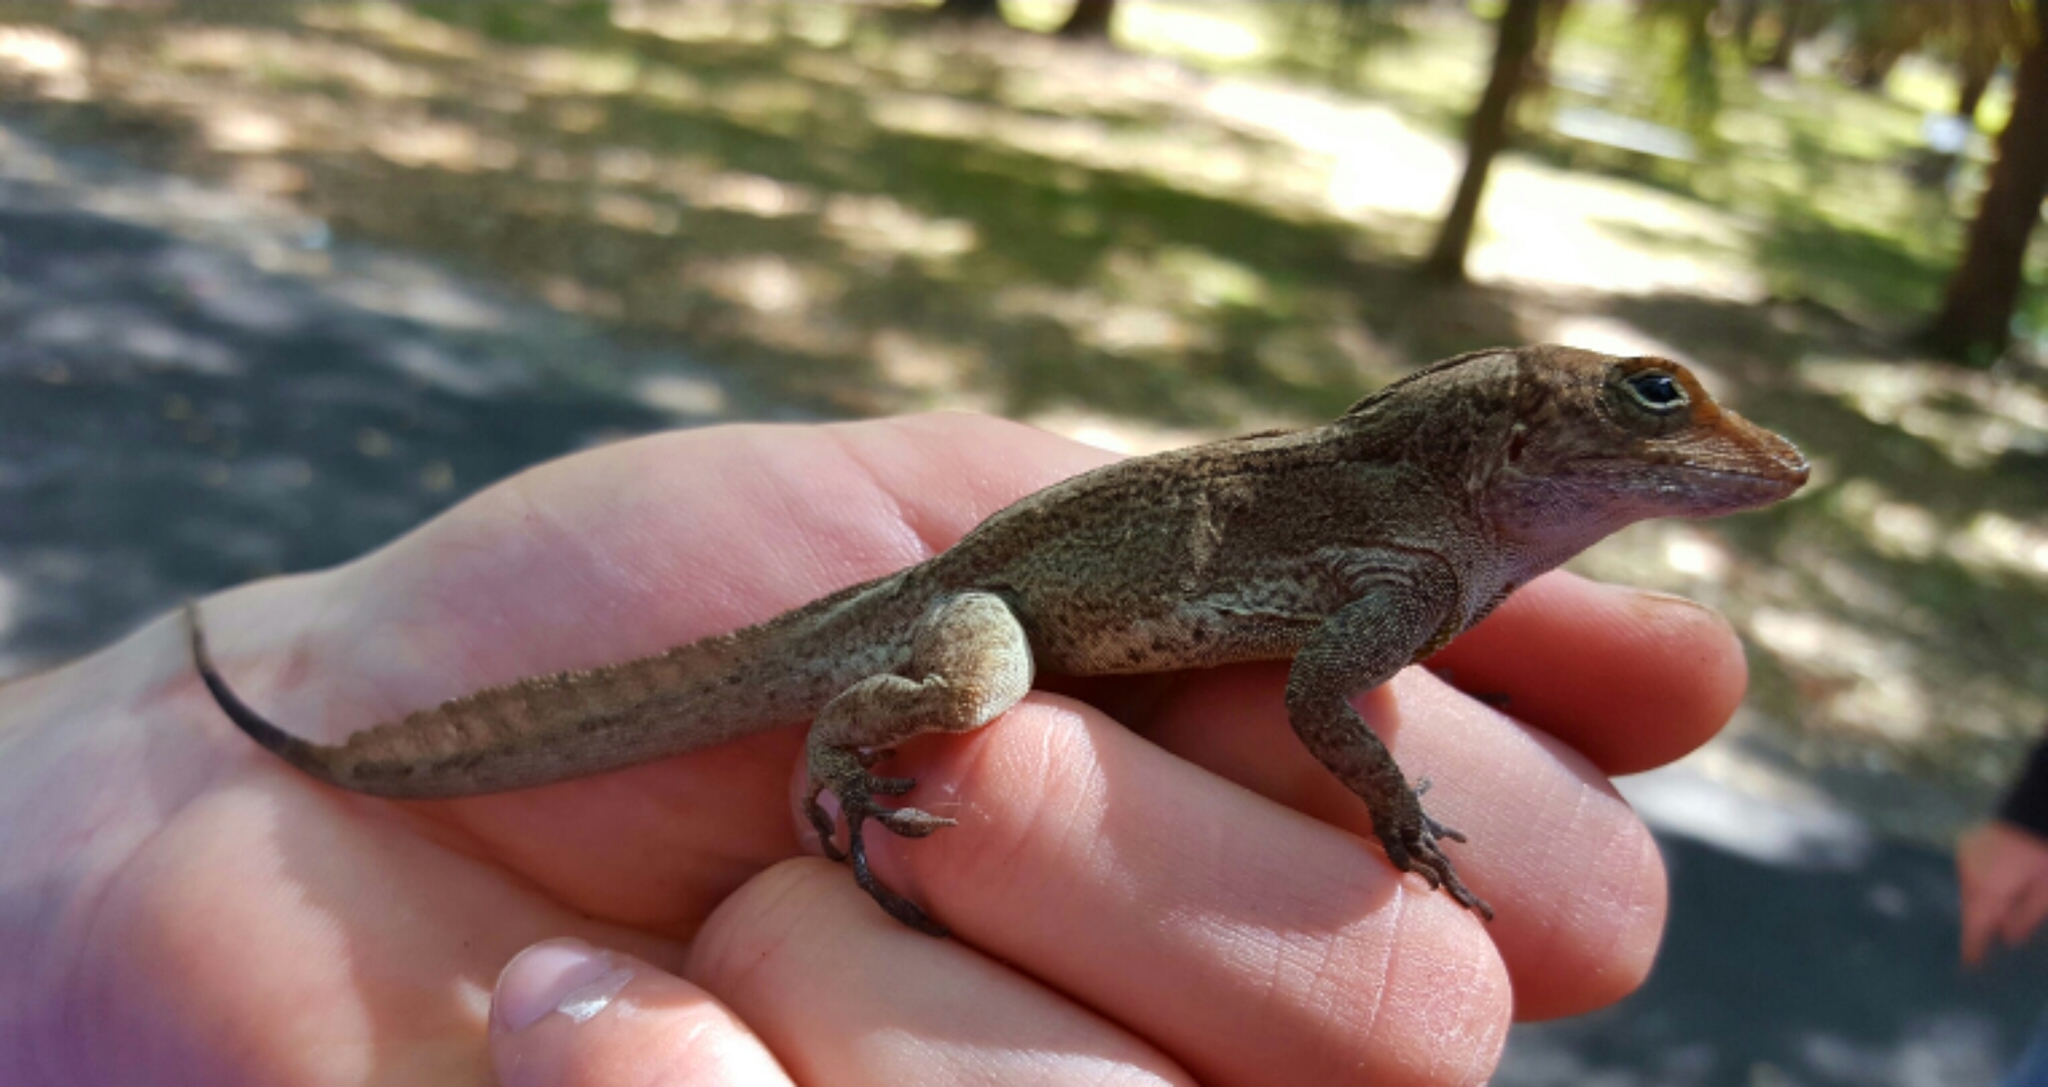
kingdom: Animalia
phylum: Chordata
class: Squamata
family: Dactyloidae
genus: Anolis
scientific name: Anolis cristatellus
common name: Crested anole
